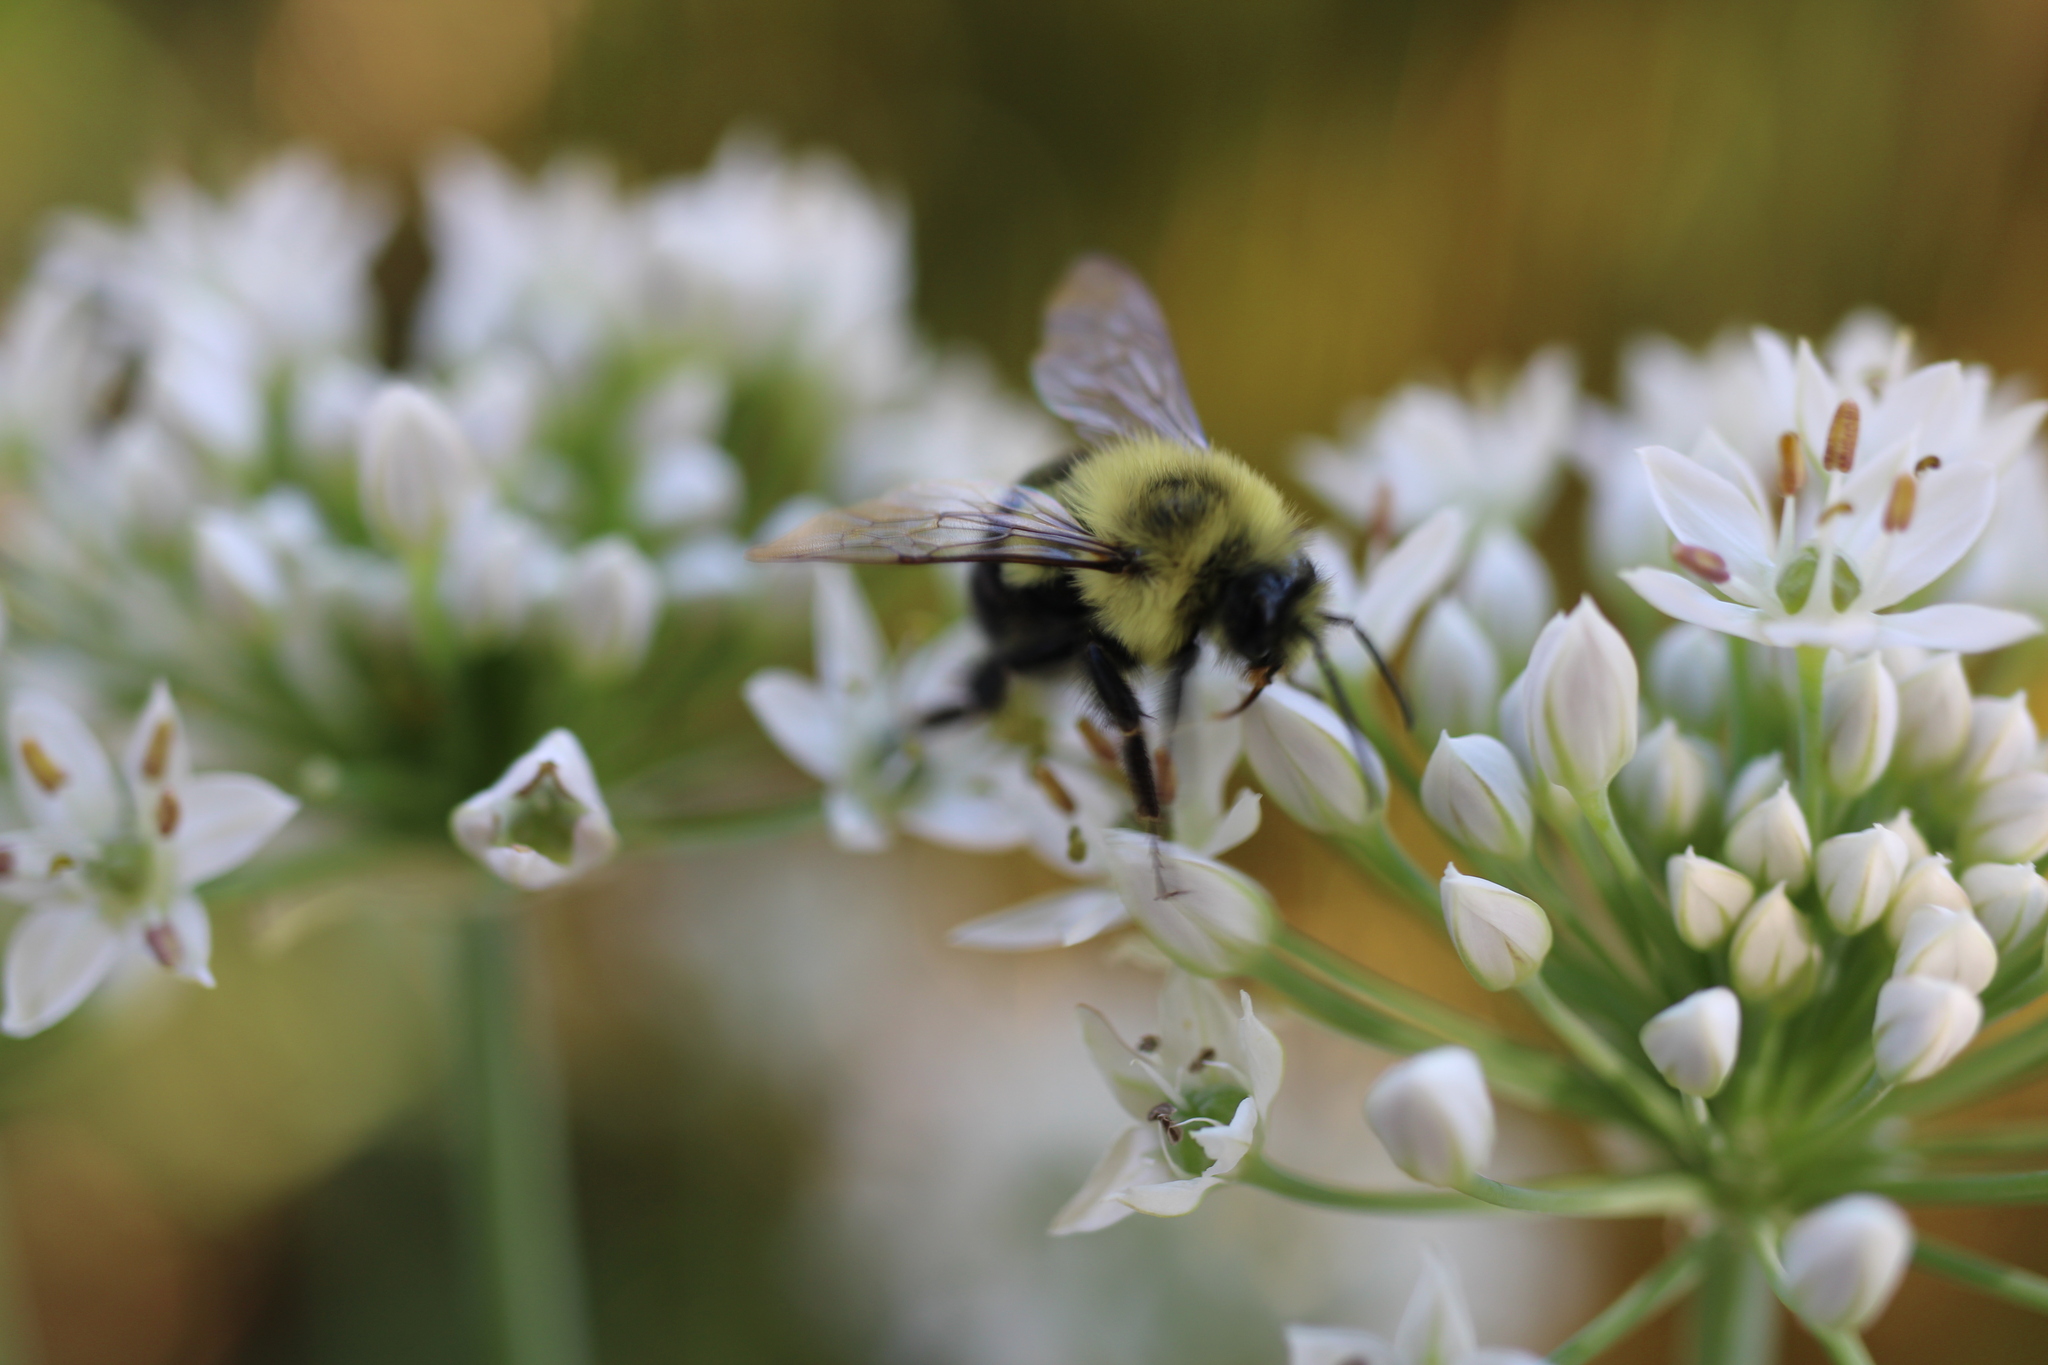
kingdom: Animalia
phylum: Arthropoda
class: Insecta
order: Hymenoptera
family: Apidae
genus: Bombus
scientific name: Bombus impatiens
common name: Common eastern bumble bee
